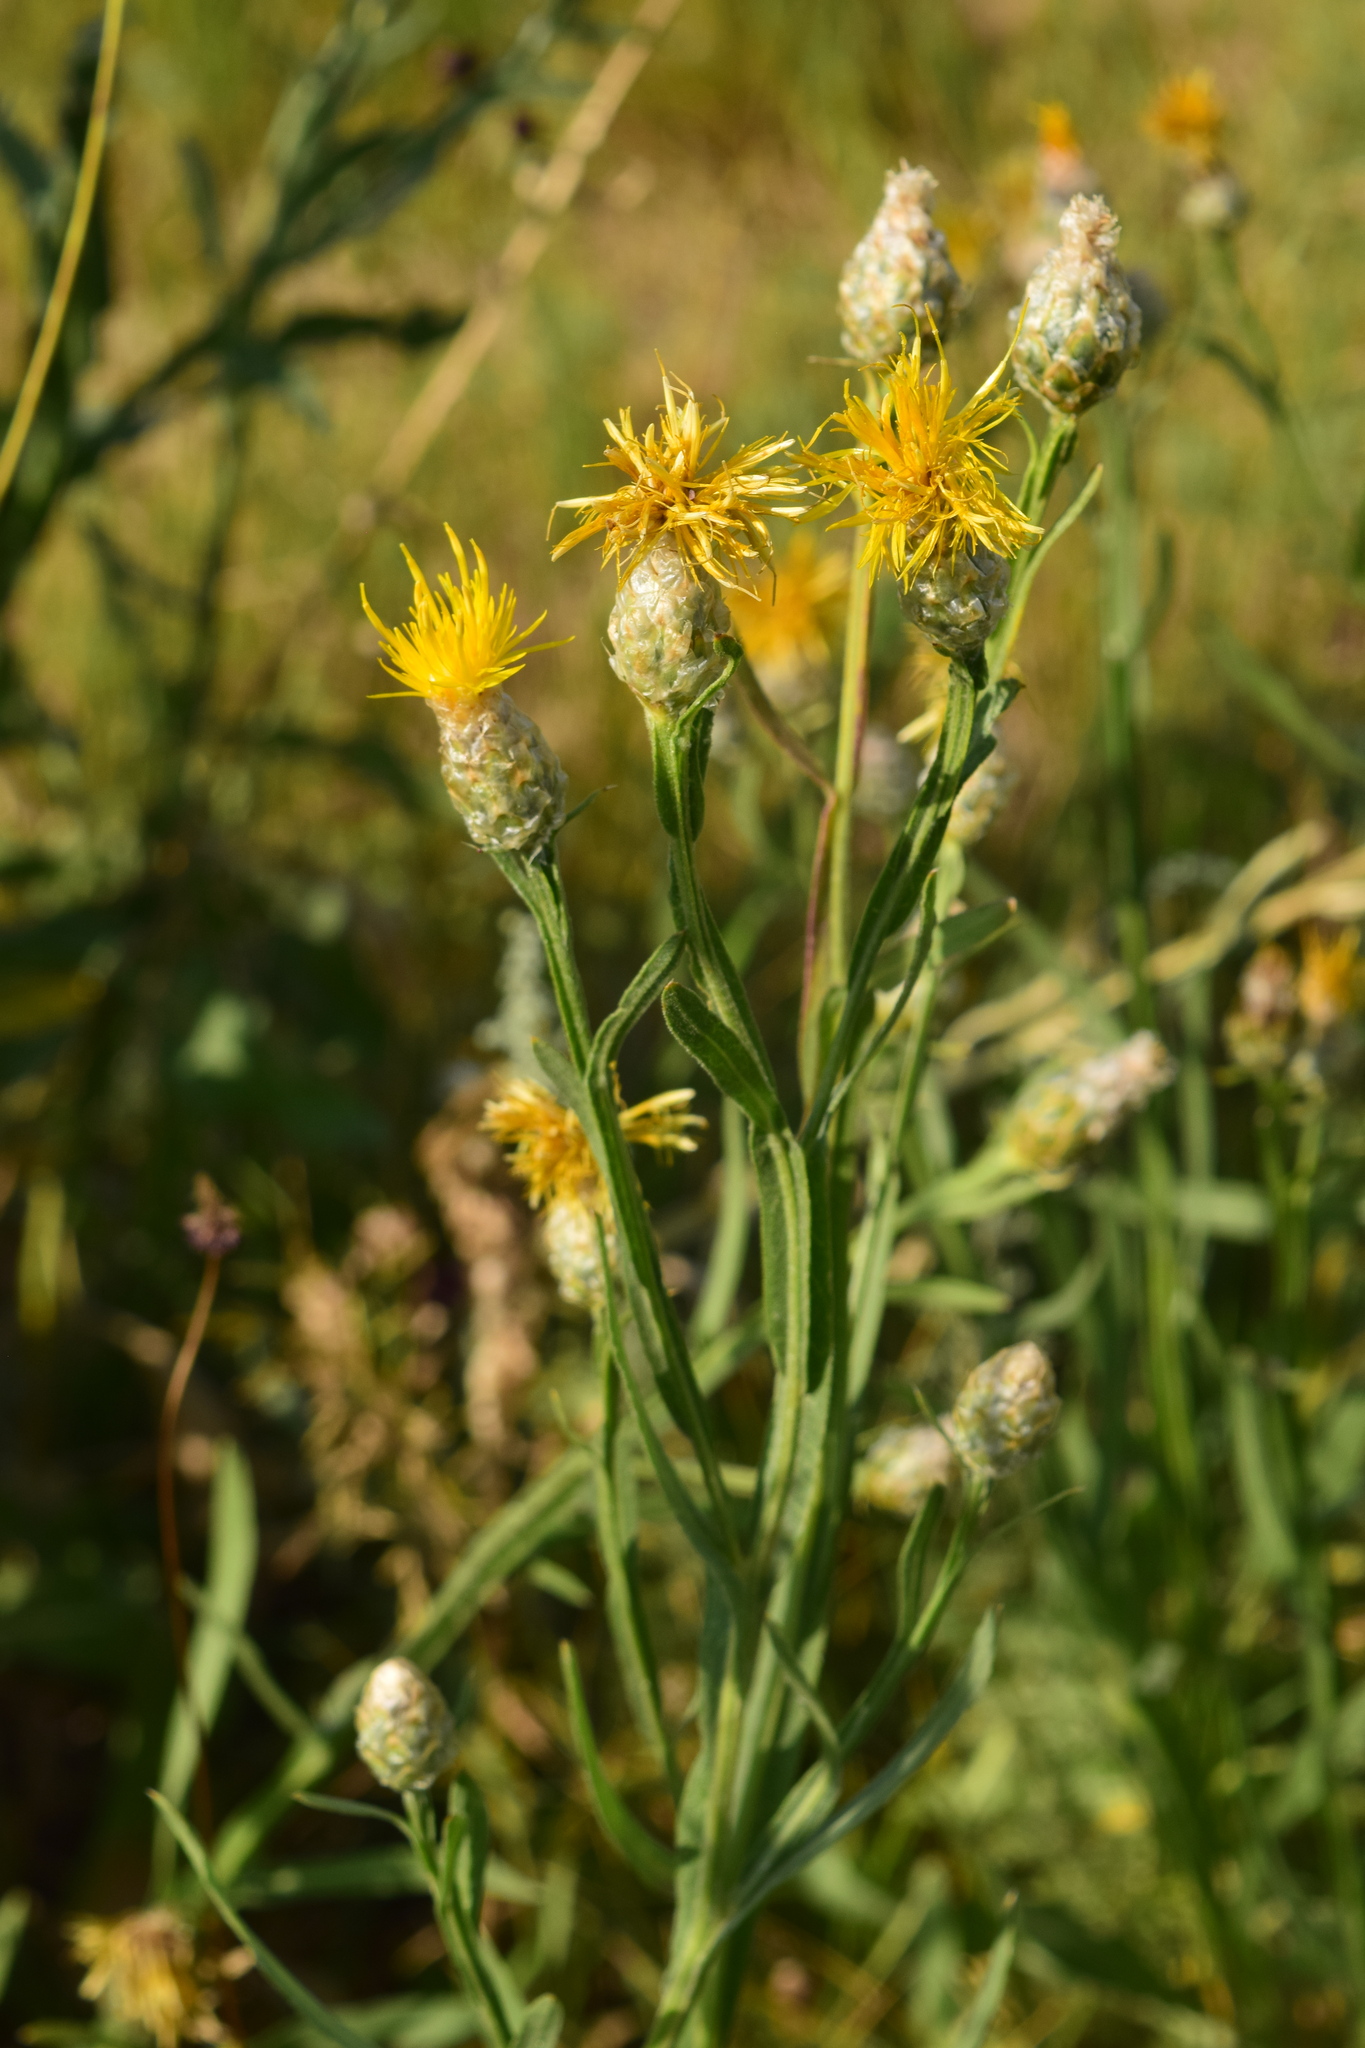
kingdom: Plantae
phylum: Tracheophyta
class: Magnoliopsida
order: Asterales
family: Asteraceae
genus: Centaurea
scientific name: Centaurea glastifolia
